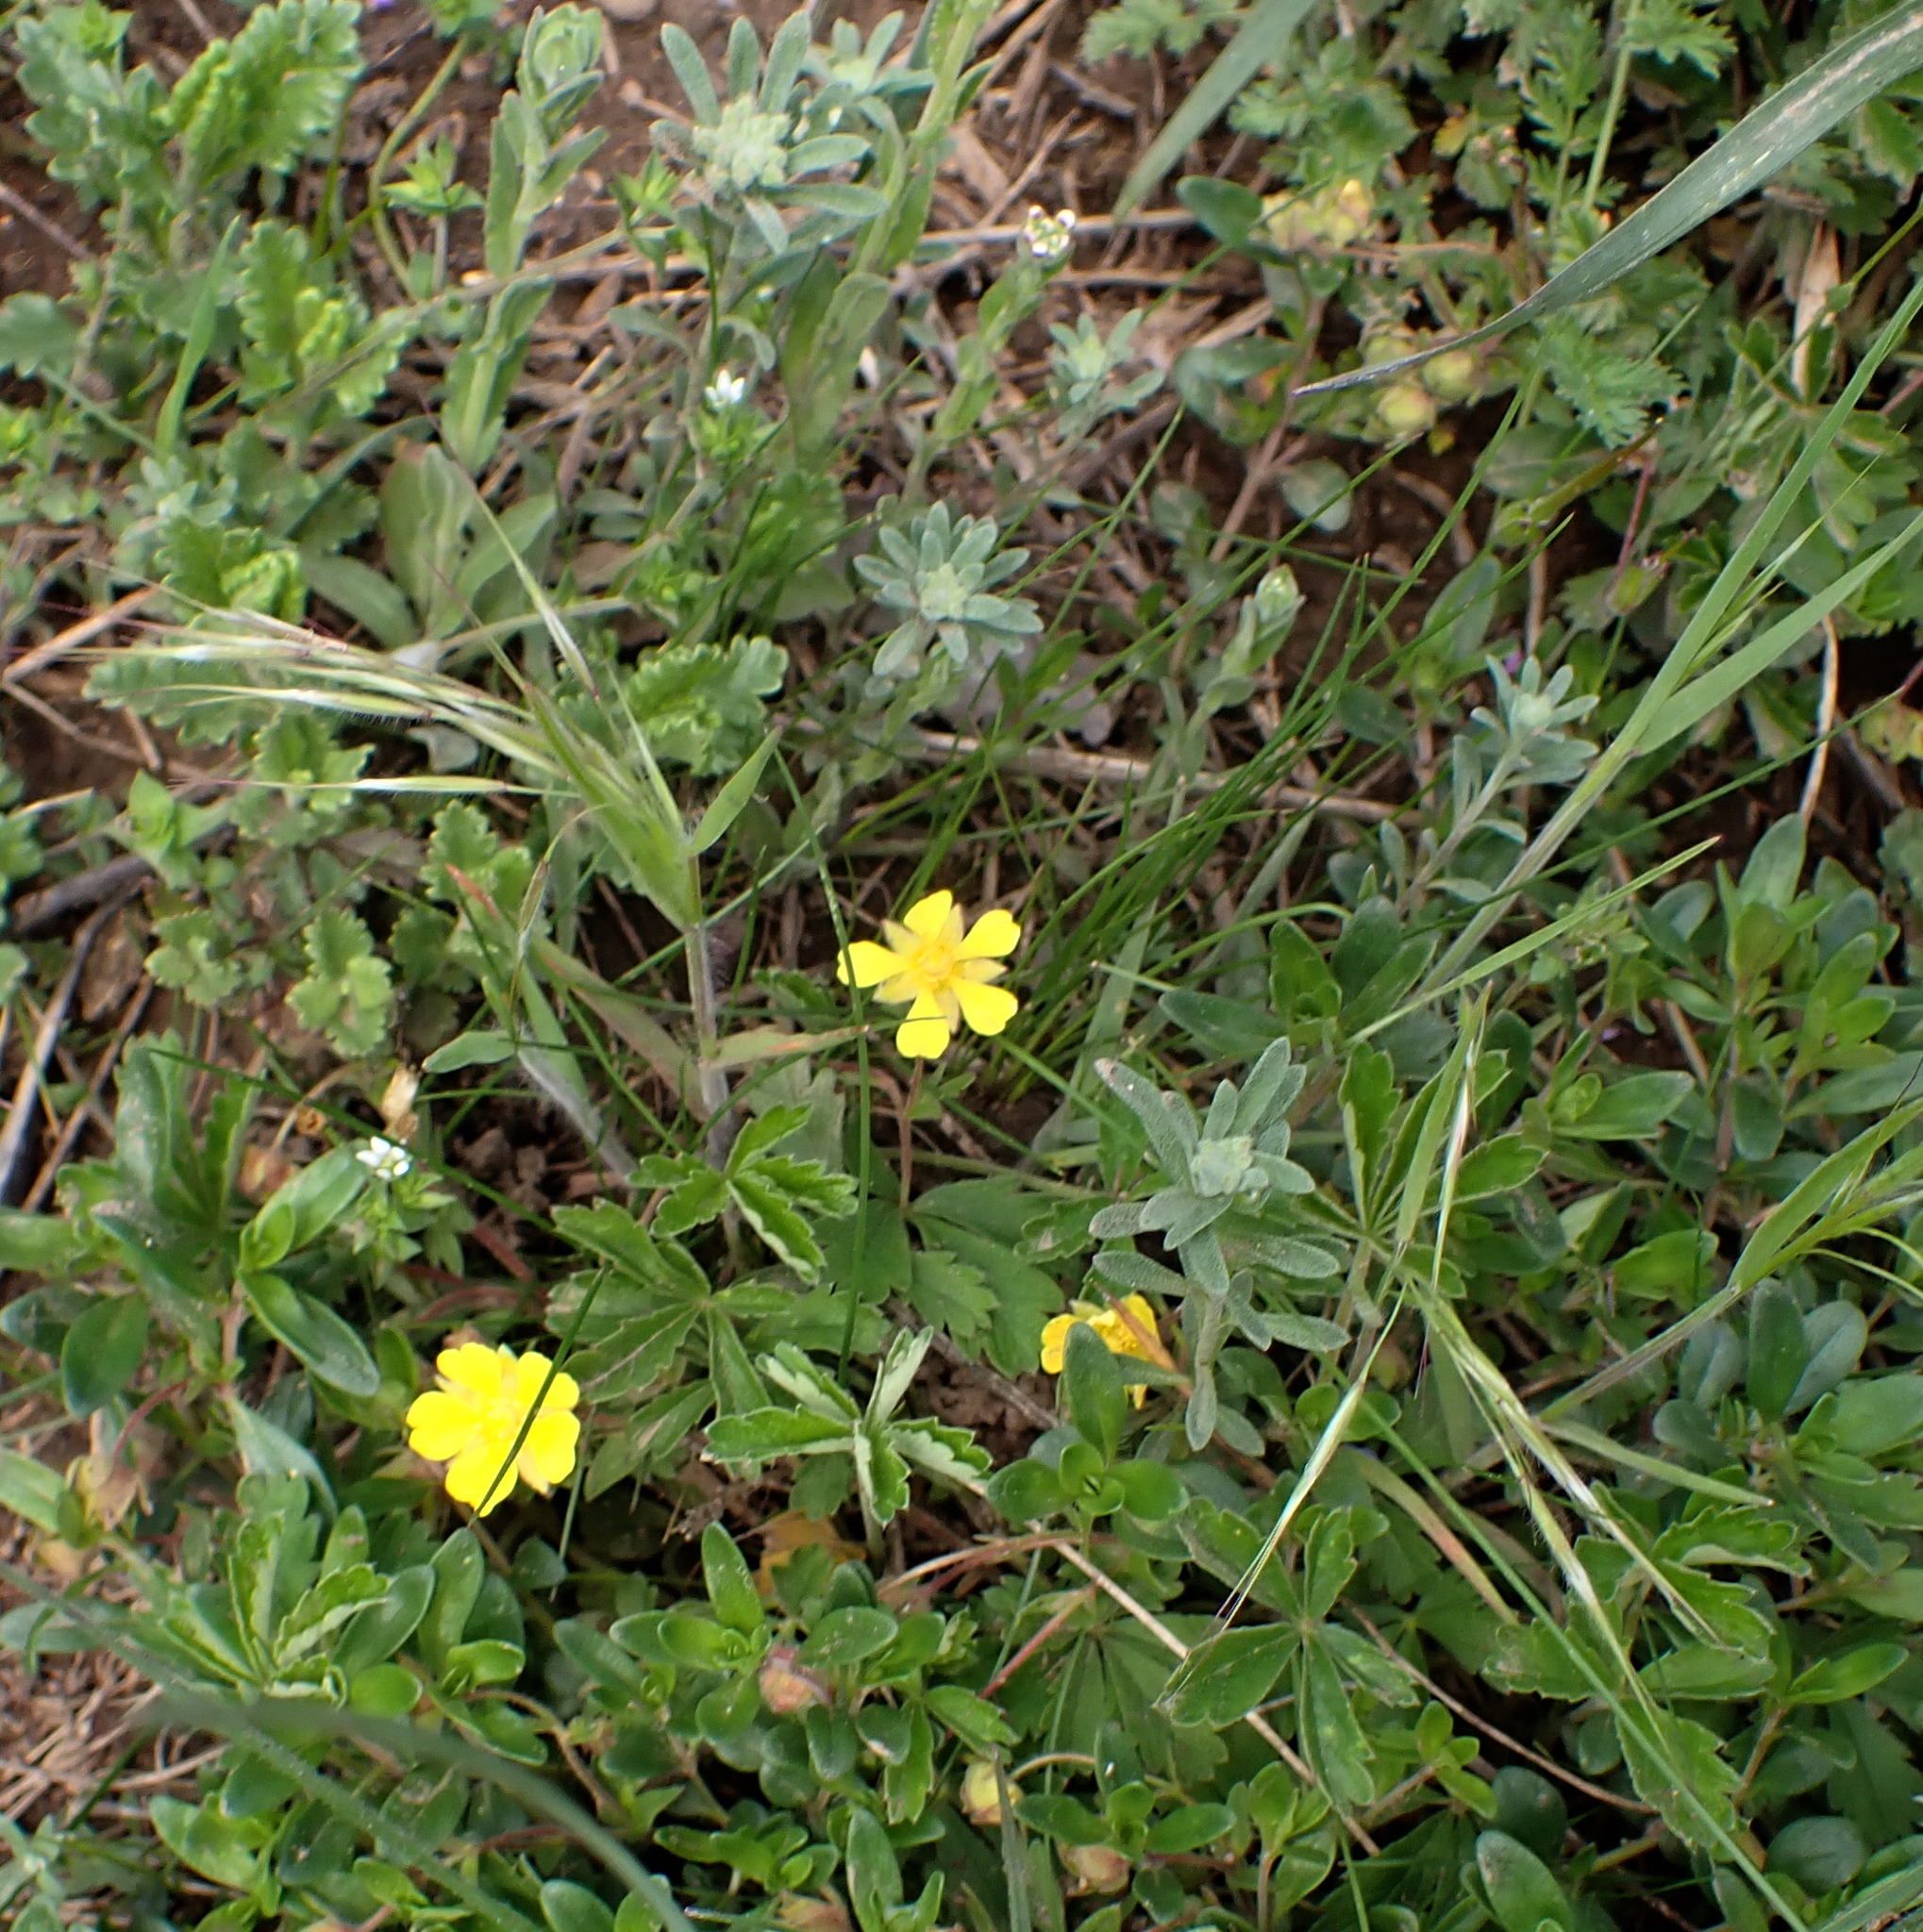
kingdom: Plantae
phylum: Tracheophyta
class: Magnoliopsida
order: Brassicales
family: Brassicaceae
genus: Alyssum
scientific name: Alyssum alyssoides
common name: Small alison
